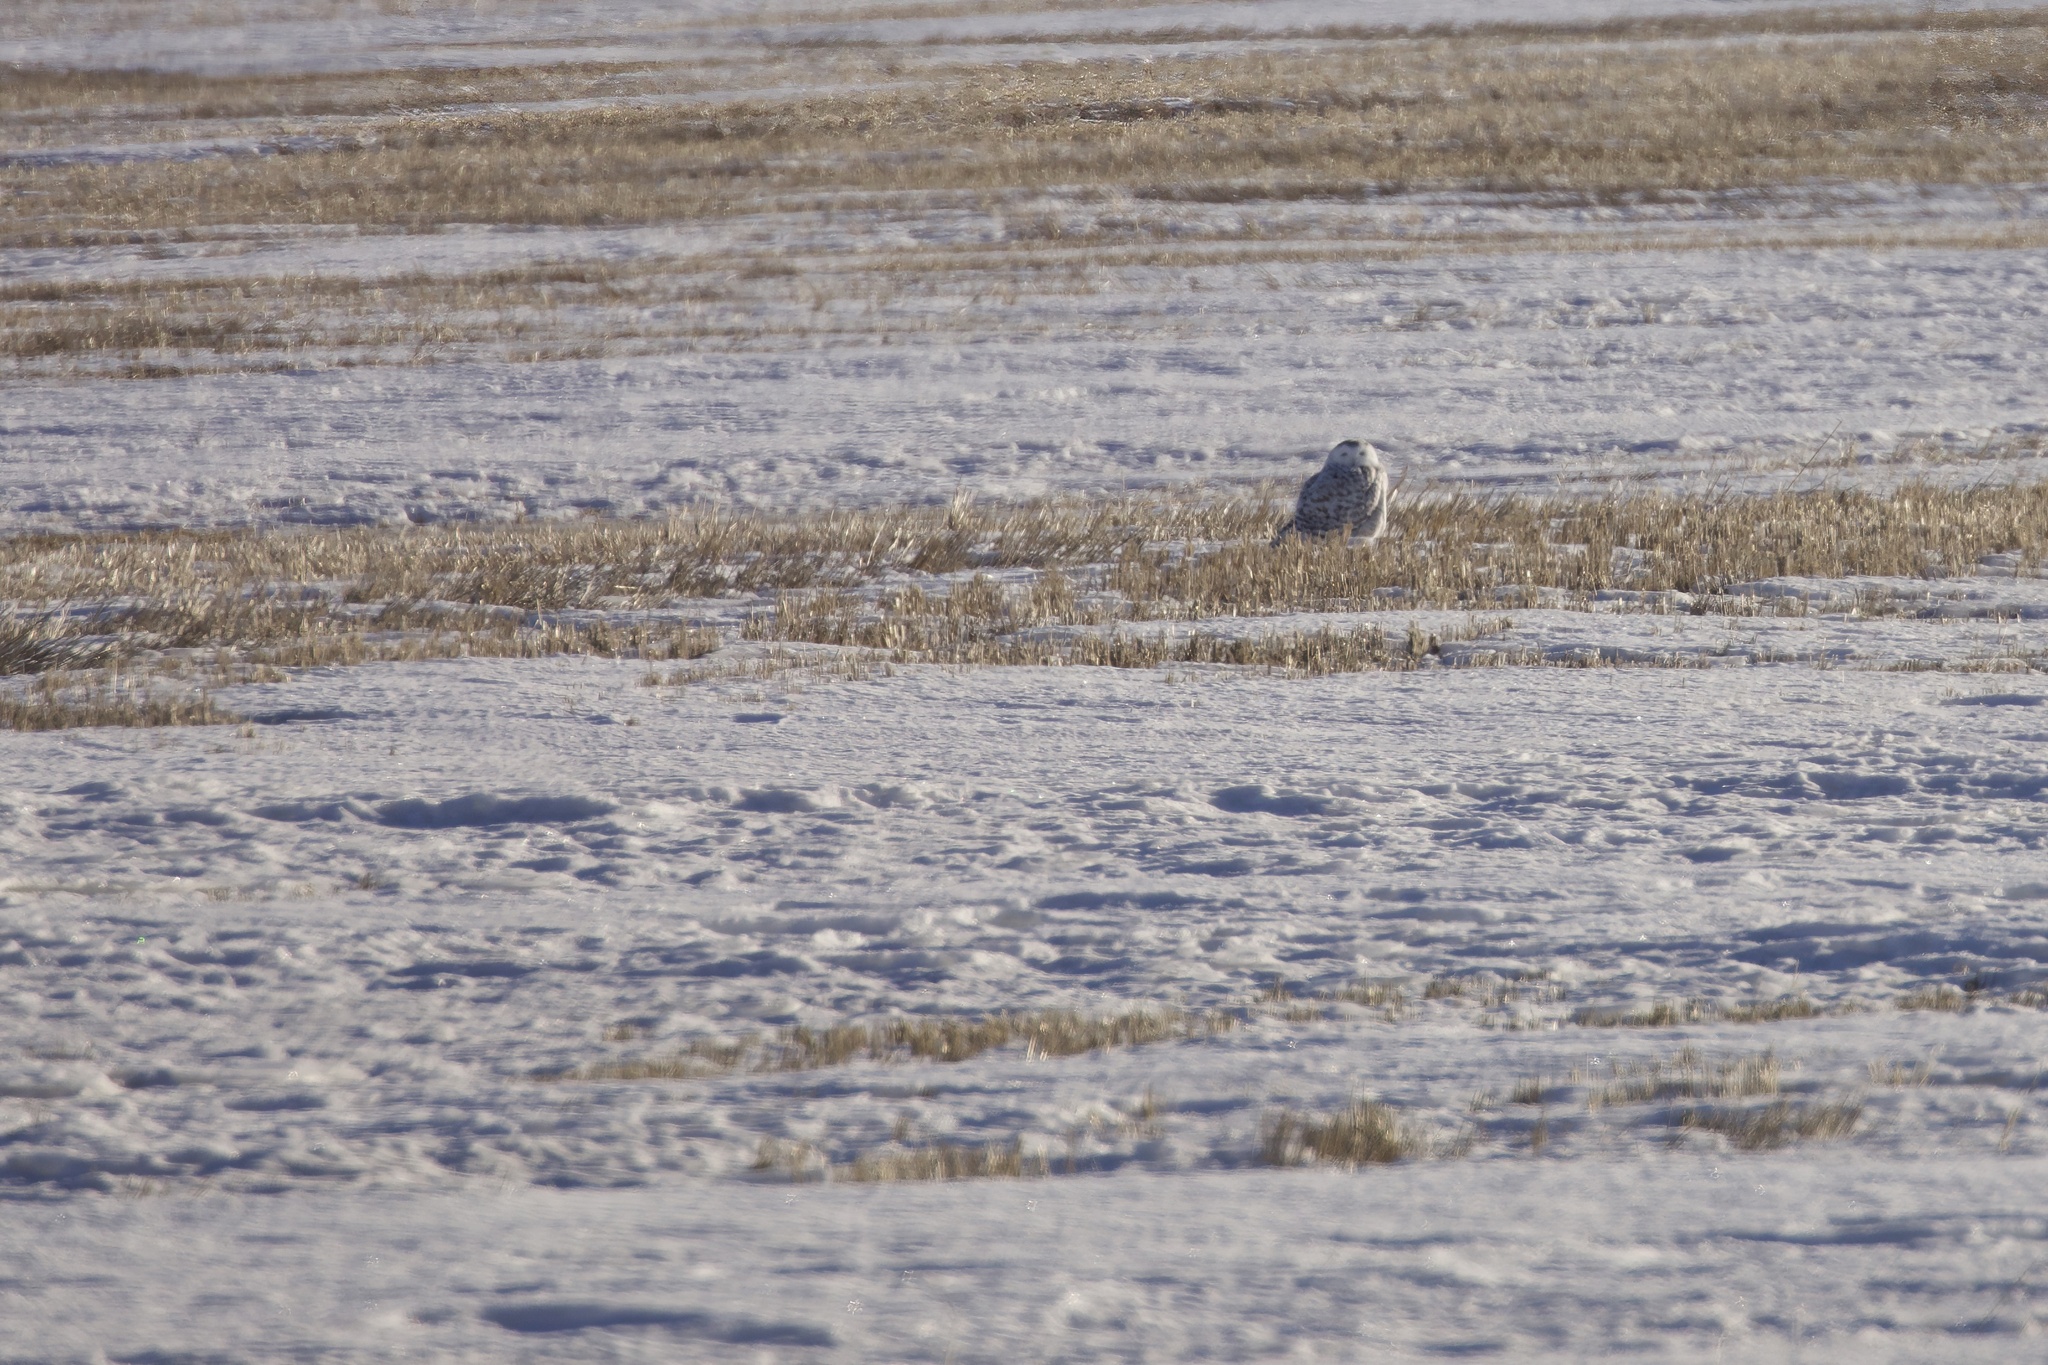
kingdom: Animalia
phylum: Chordata
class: Aves
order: Strigiformes
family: Strigidae
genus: Bubo
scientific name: Bubo scandiacus
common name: Snowy owl
